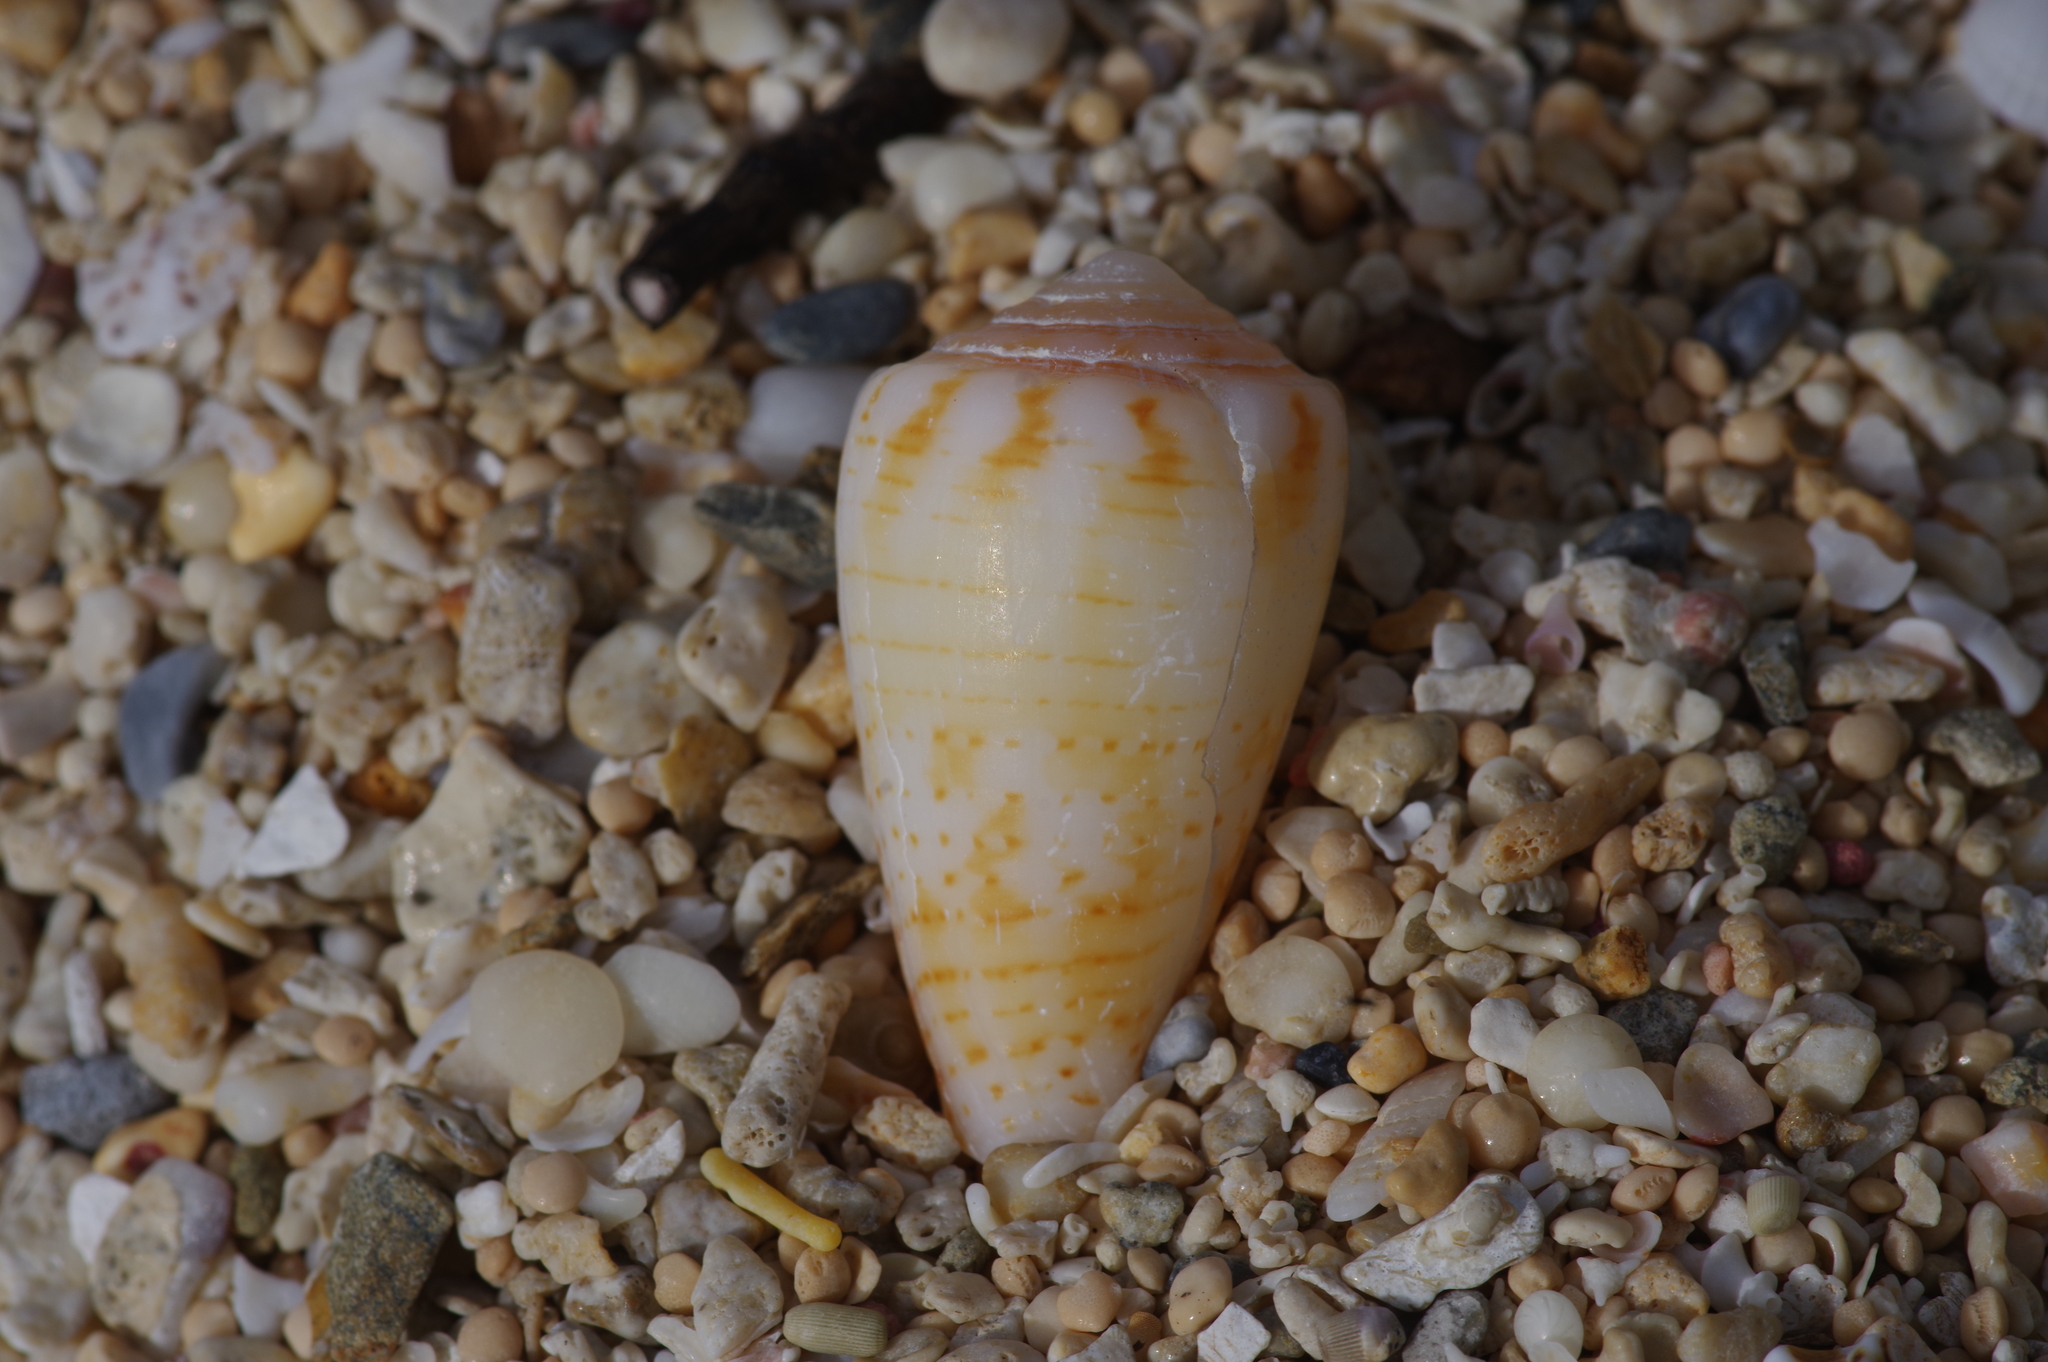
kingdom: Animalia
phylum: Mollusca
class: Gastropoda
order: Neogastropoda
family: Conidae
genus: Conus
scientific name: Conus boeticus
